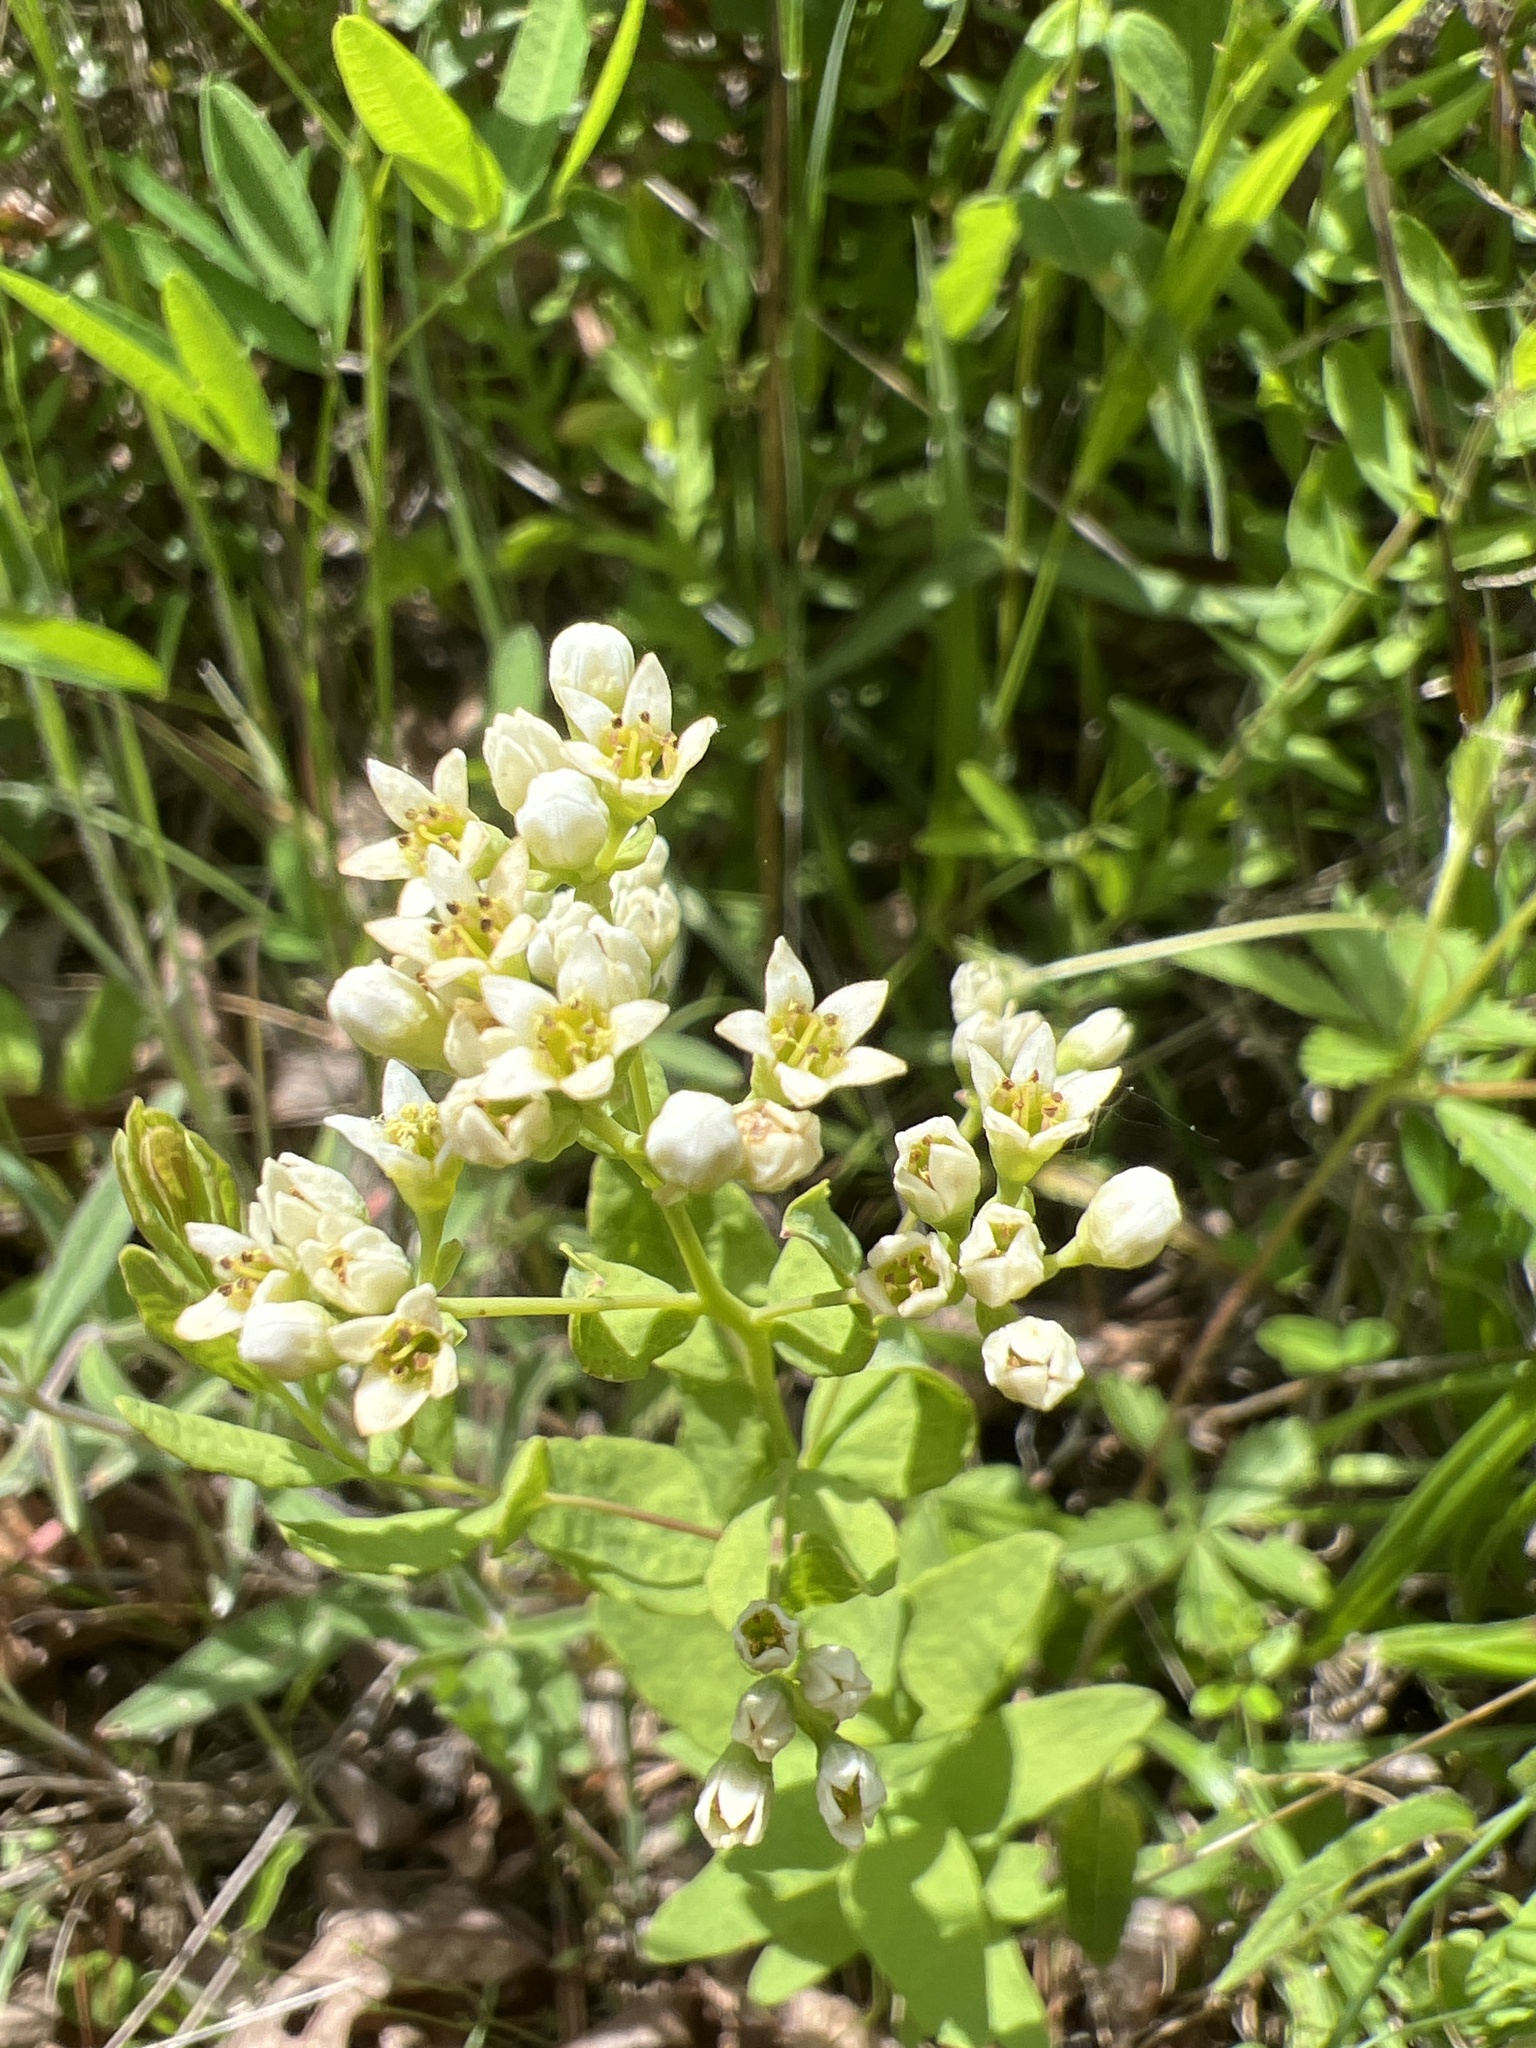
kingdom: Plantae
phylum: Tracheophyta
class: Magnoliopsida
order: Santalales
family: Comandraceae
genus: Comandra
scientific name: Comandra umbellata
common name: Bastard toadflax
